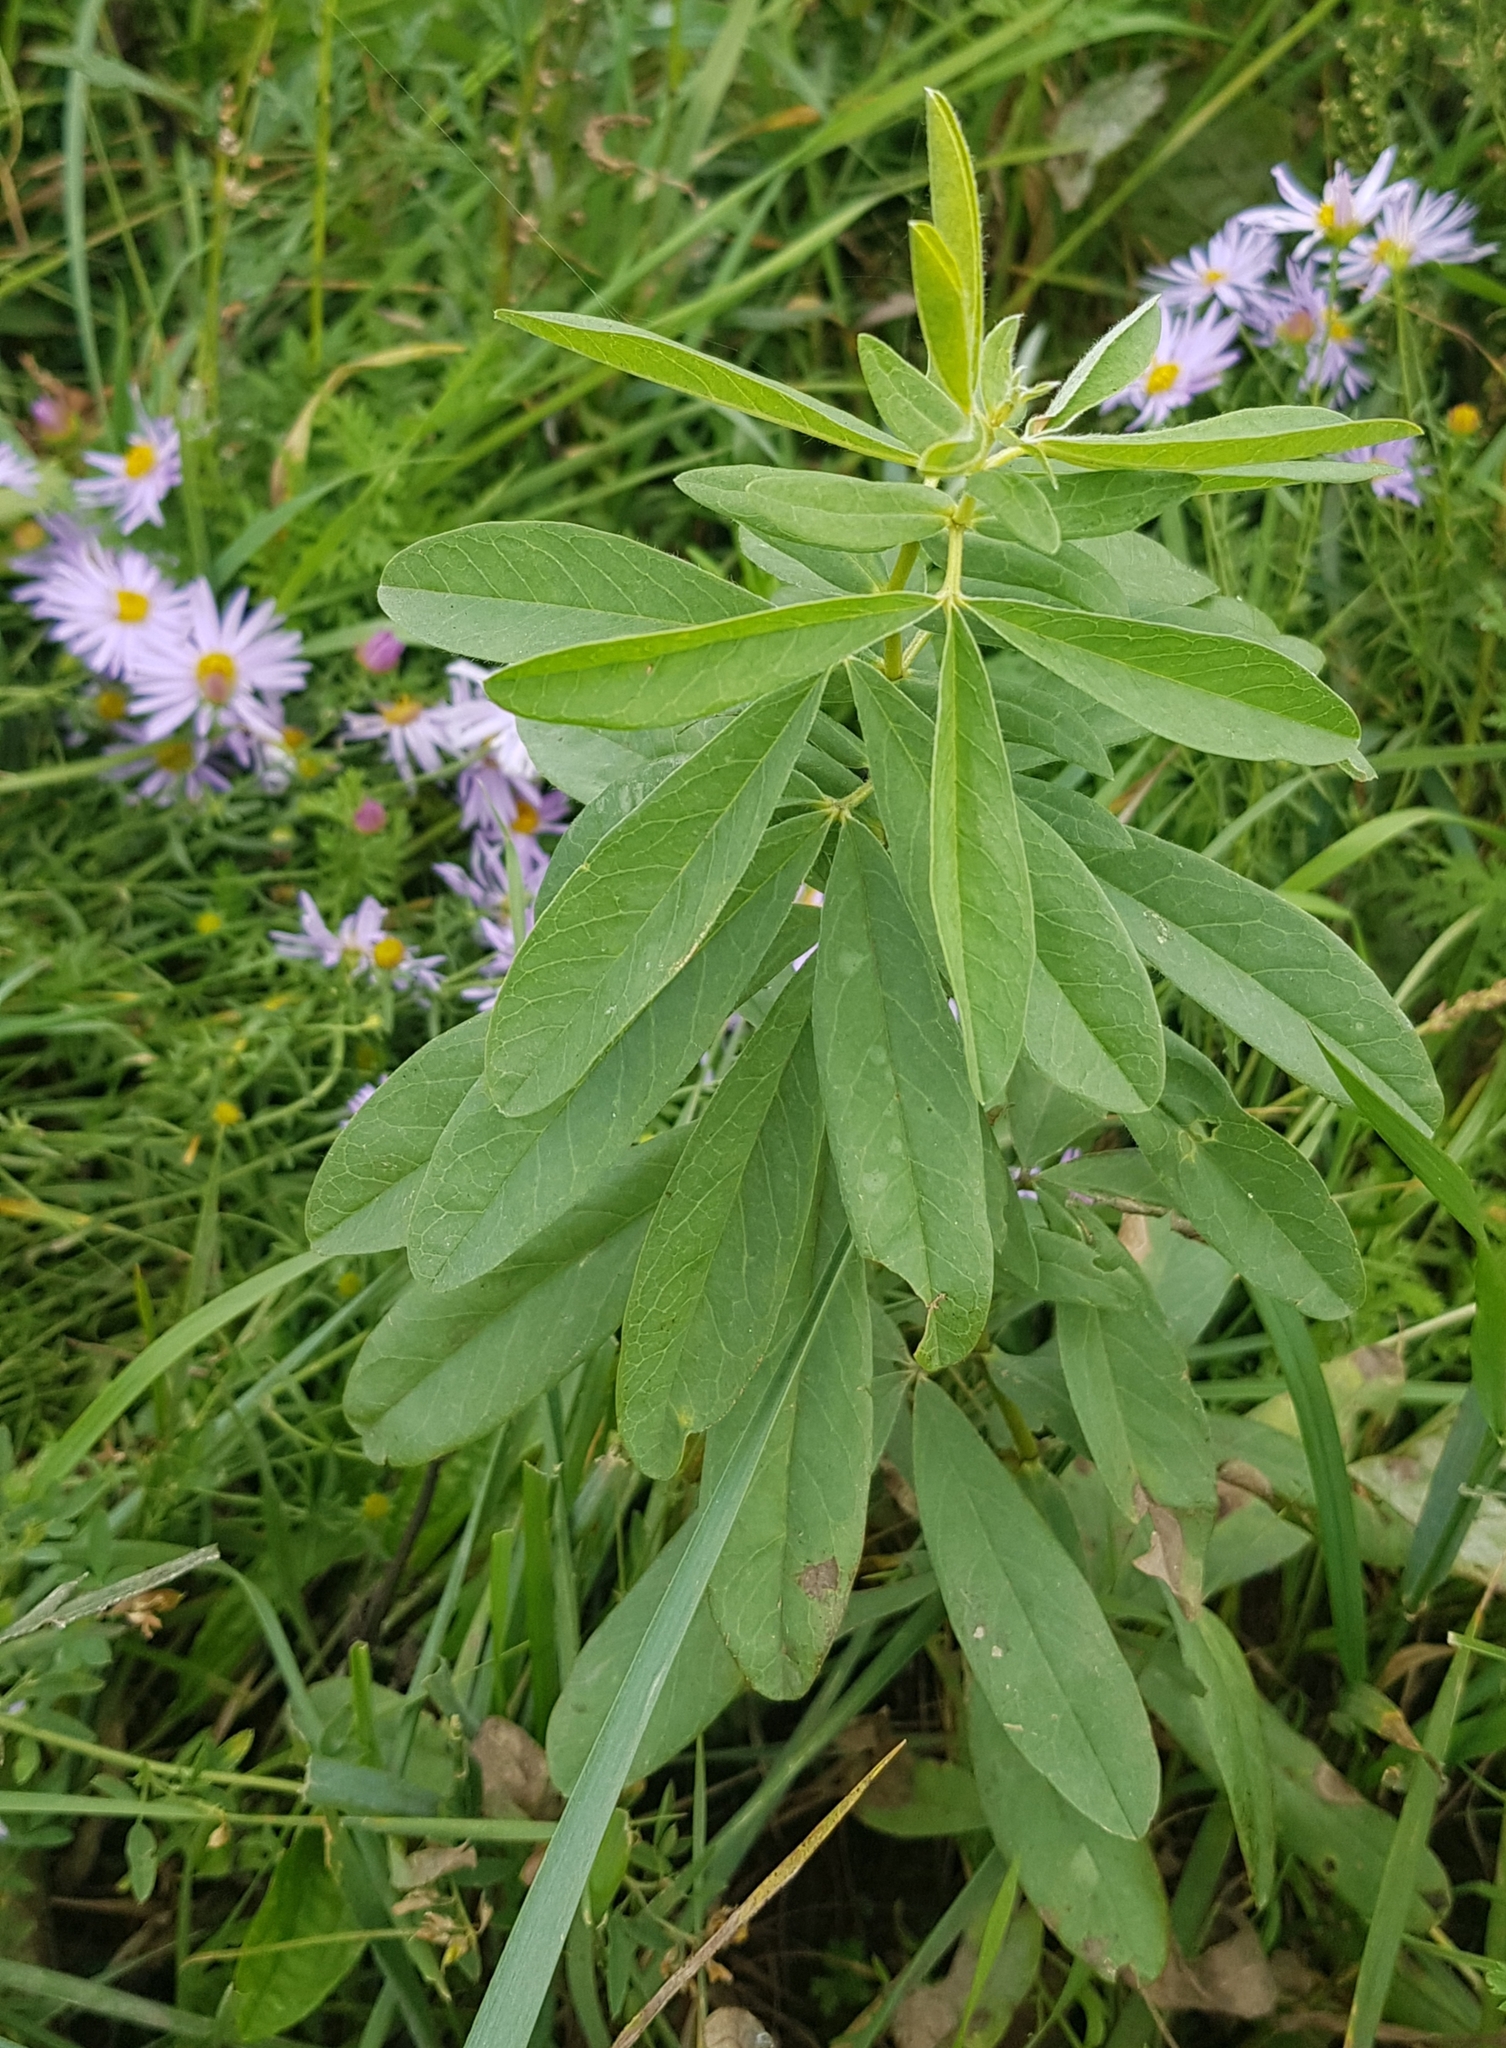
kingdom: Plantae
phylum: Tracheophyta
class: Magnoliopsida
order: Fabales
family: Fabaceae
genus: Thermopsis
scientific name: Thermopsis dahurica
